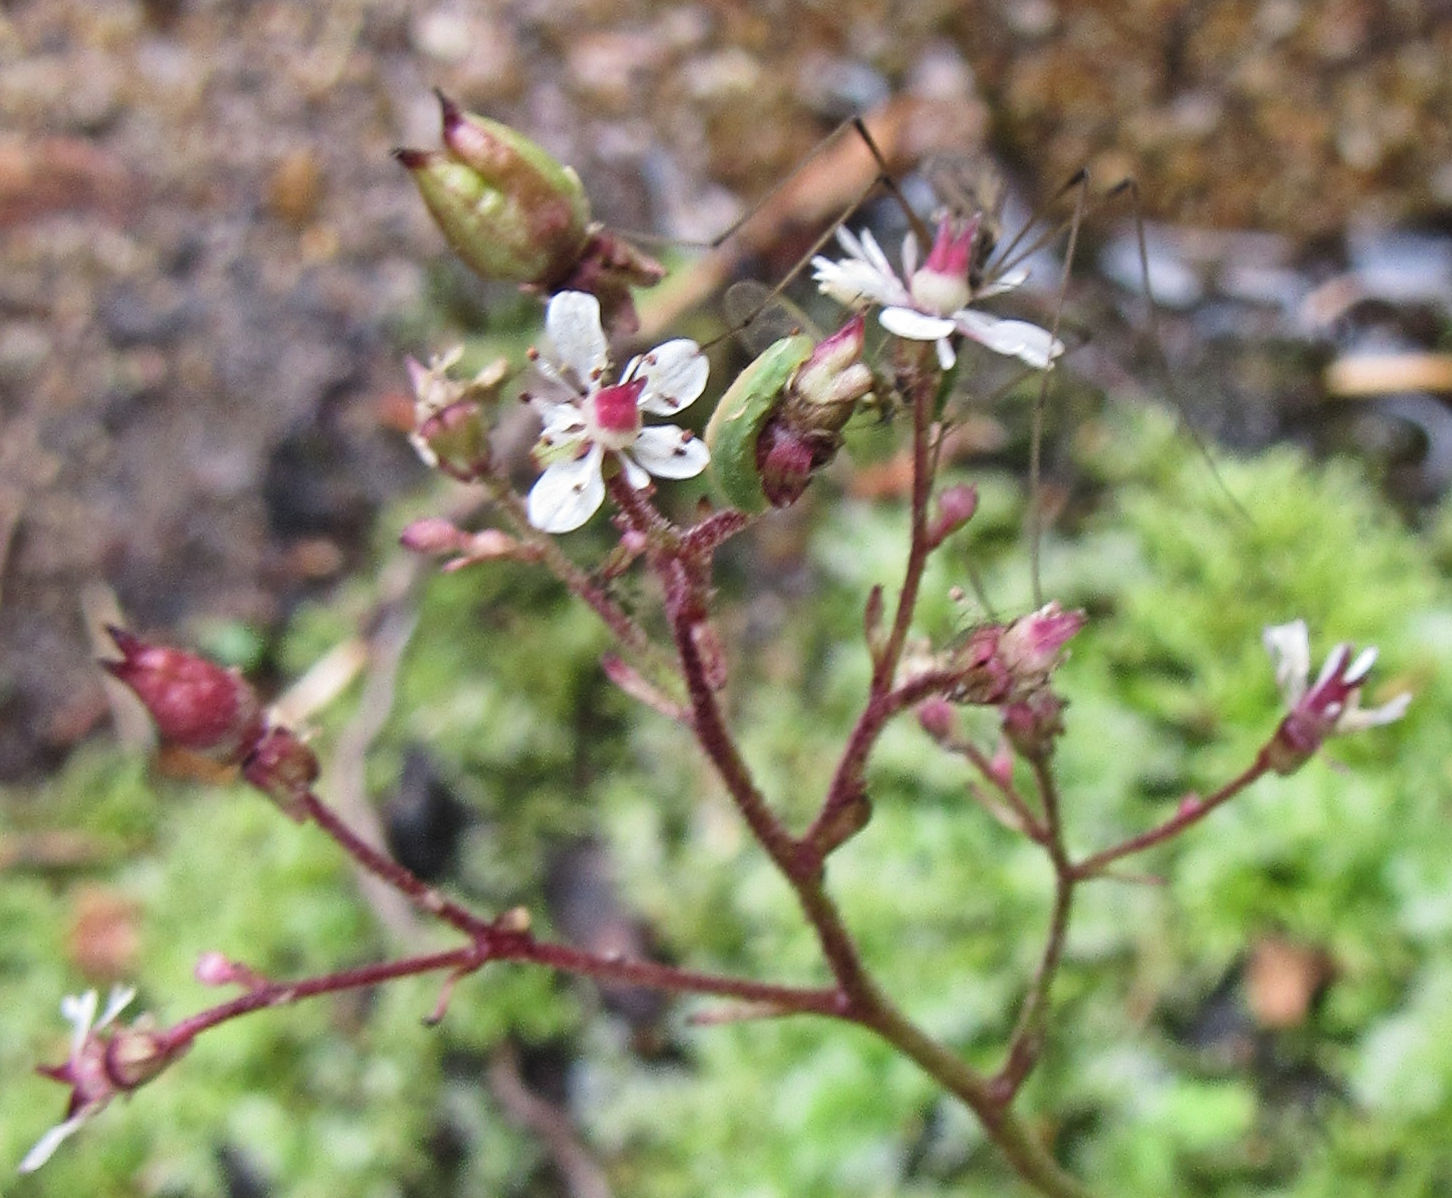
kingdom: Plantae
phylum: Tracheophyta
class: Magnoliopsida
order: Saxifragales
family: Saxifragaceae
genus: Micranthes
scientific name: Micranthes odontoloma
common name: Brook saxifrage
